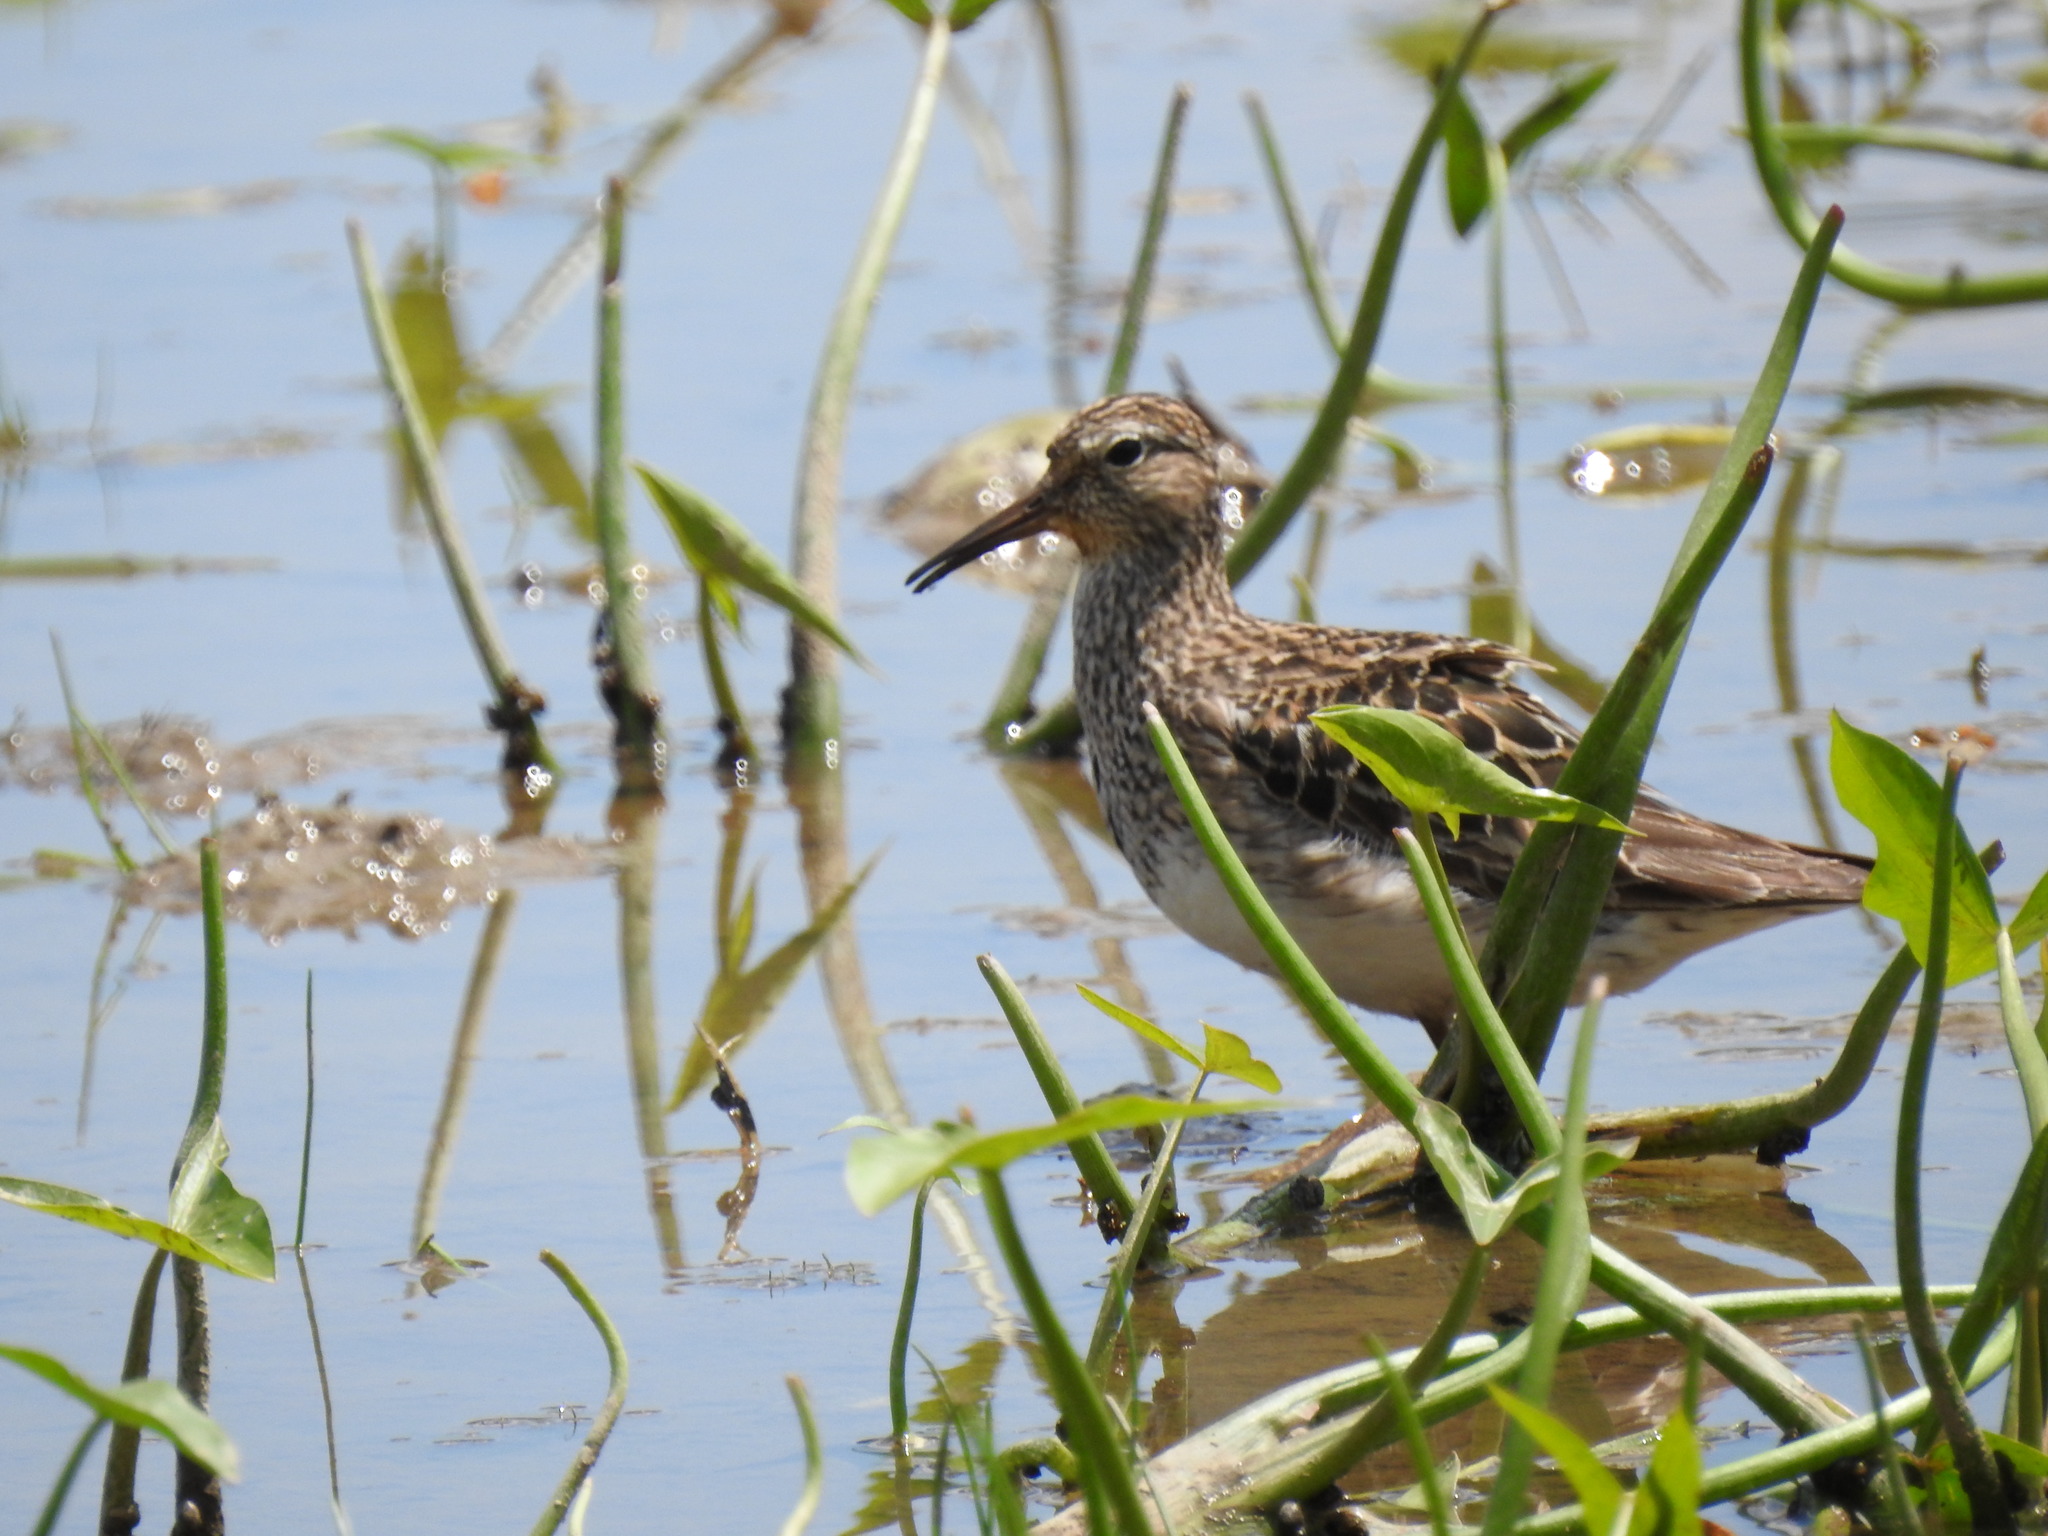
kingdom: Animalia
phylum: Chordata
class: Aves
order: Charadriiformes
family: Scolopacidae
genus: Calidris
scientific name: Calidris melanotos
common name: Pectoral sandpiper
